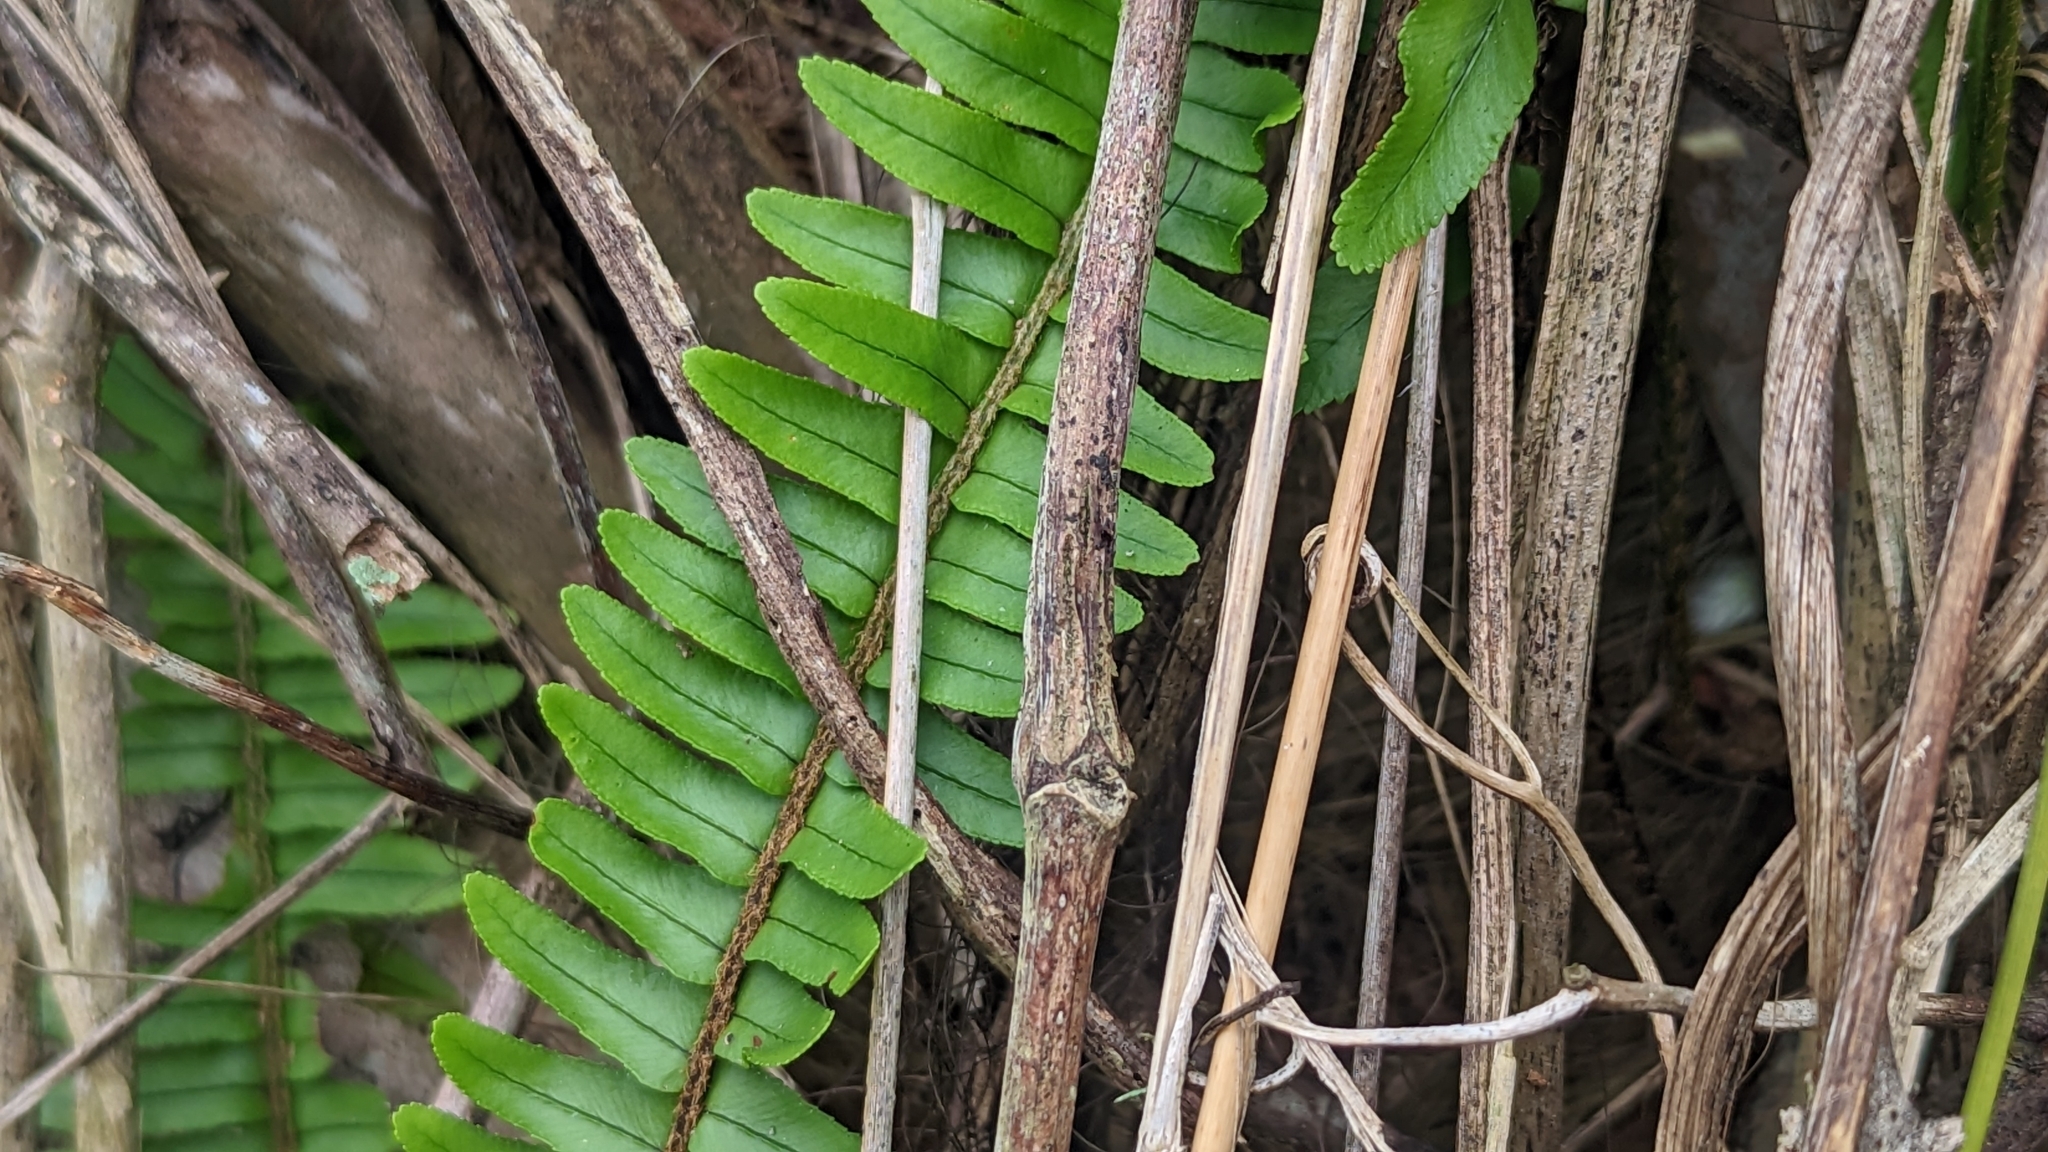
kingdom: Plantae
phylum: Tracheophyta
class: Polypodiopsida
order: Polypodiales
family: Nephrolepidaceae
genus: Nephrolepis
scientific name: Nephrolepis cordifolia
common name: Narrow swordfern
